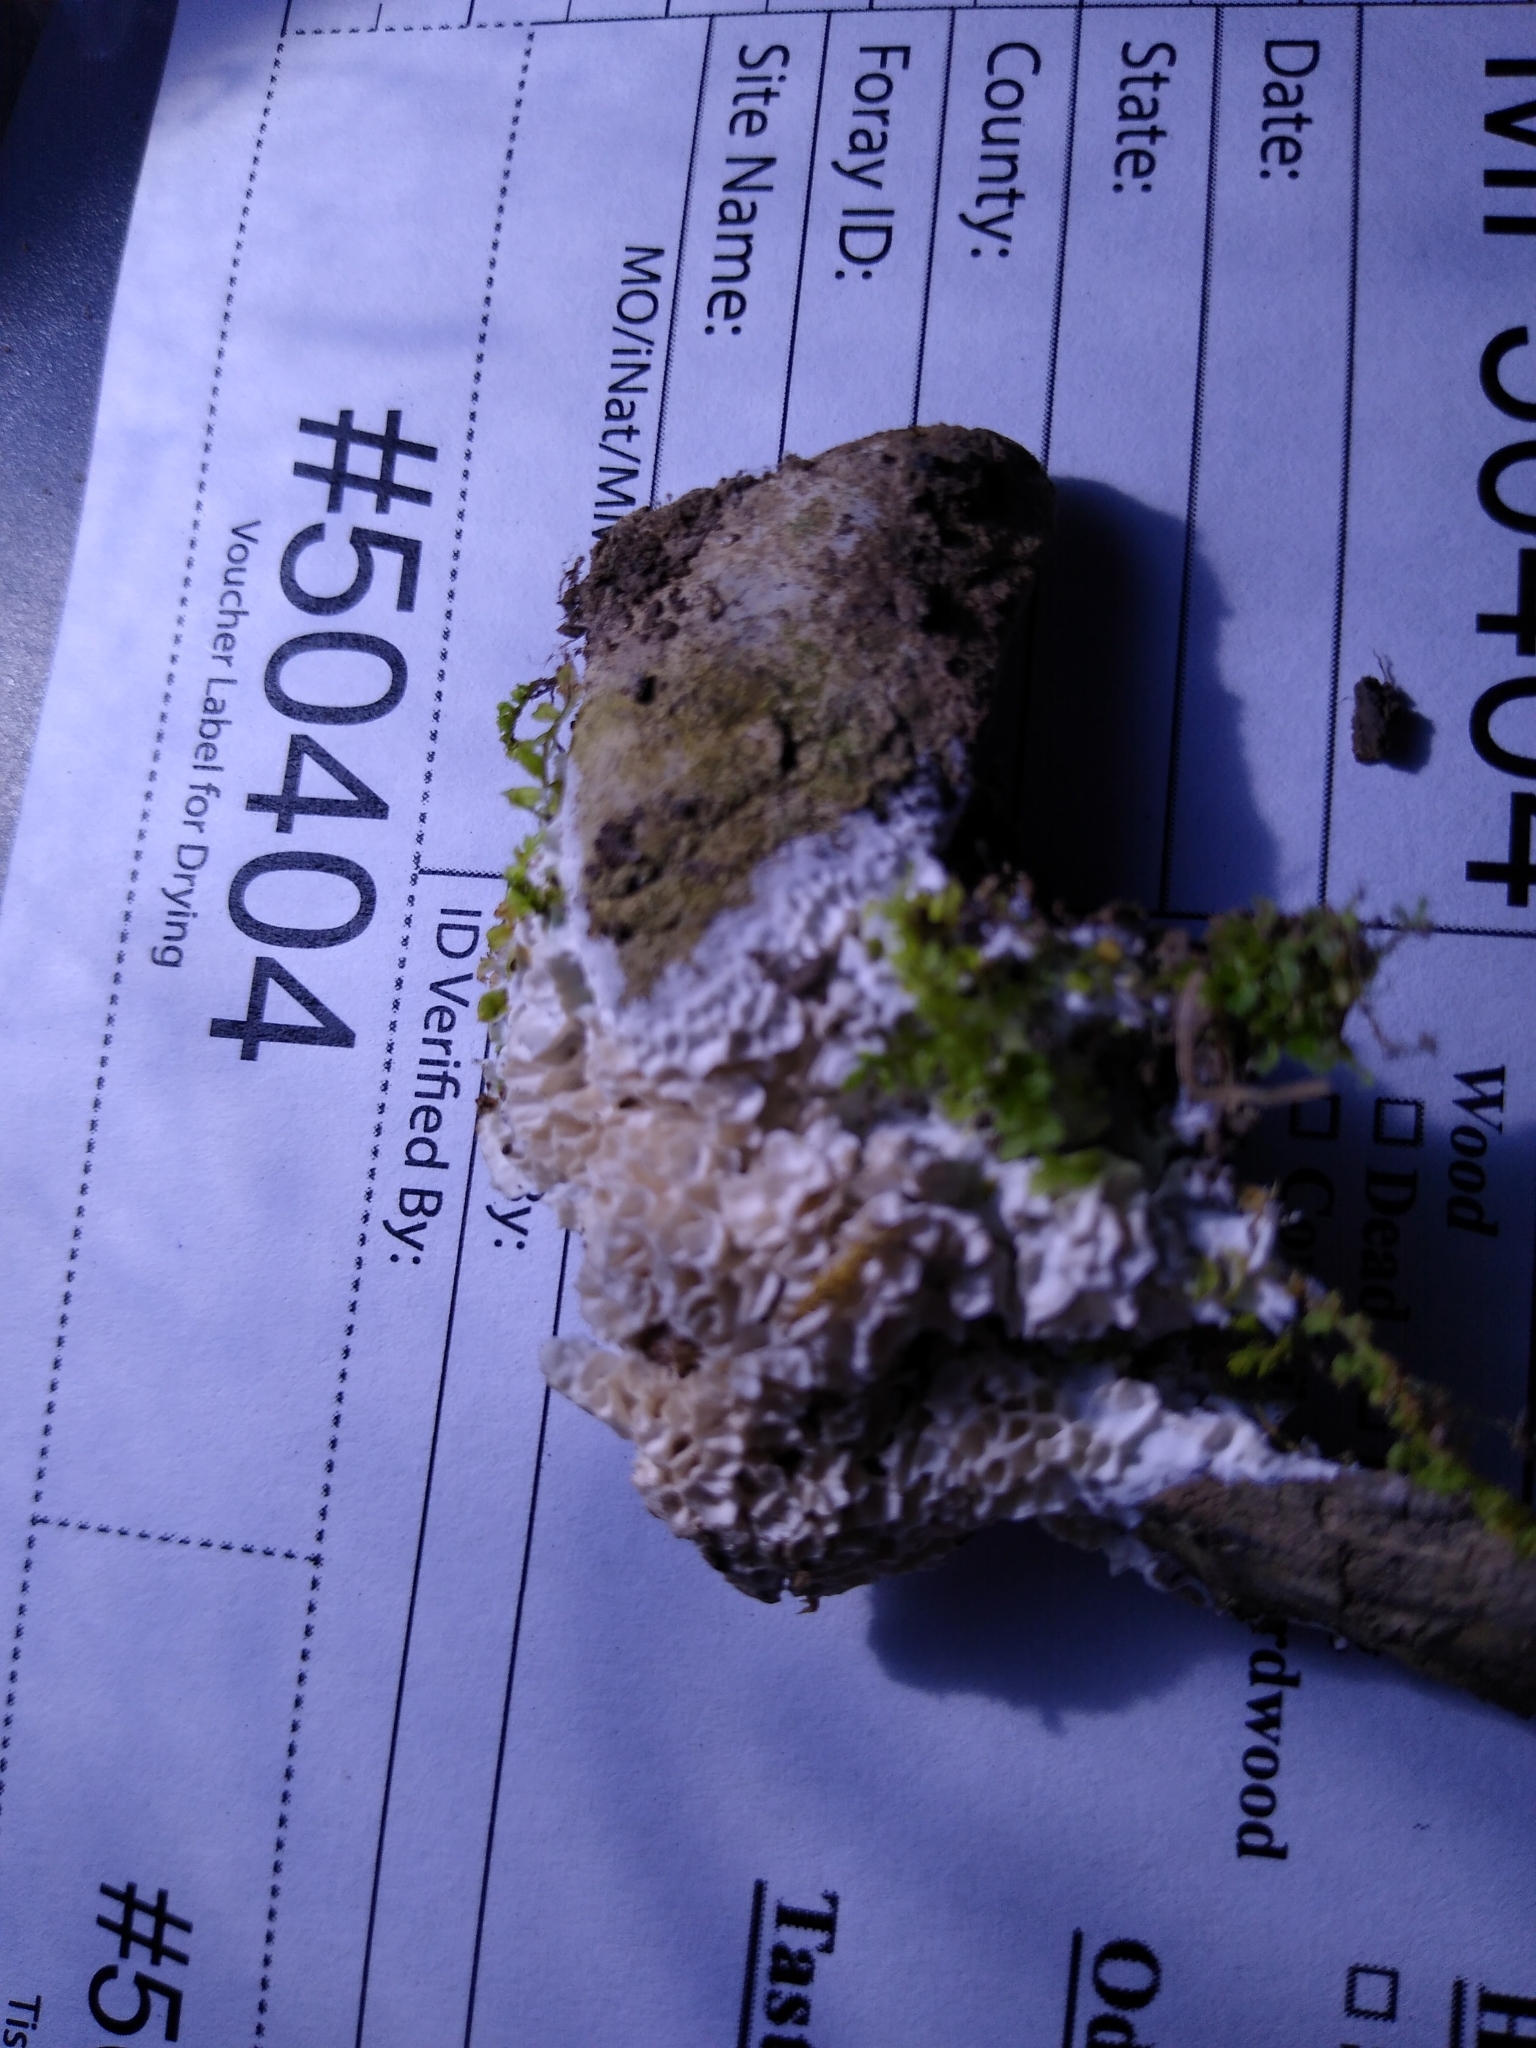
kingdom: Fungi
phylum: Basidiomycota
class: Agaricomycetes
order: Polyporales
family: Irpicaceae
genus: Irpex
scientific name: Irpex subulatus
